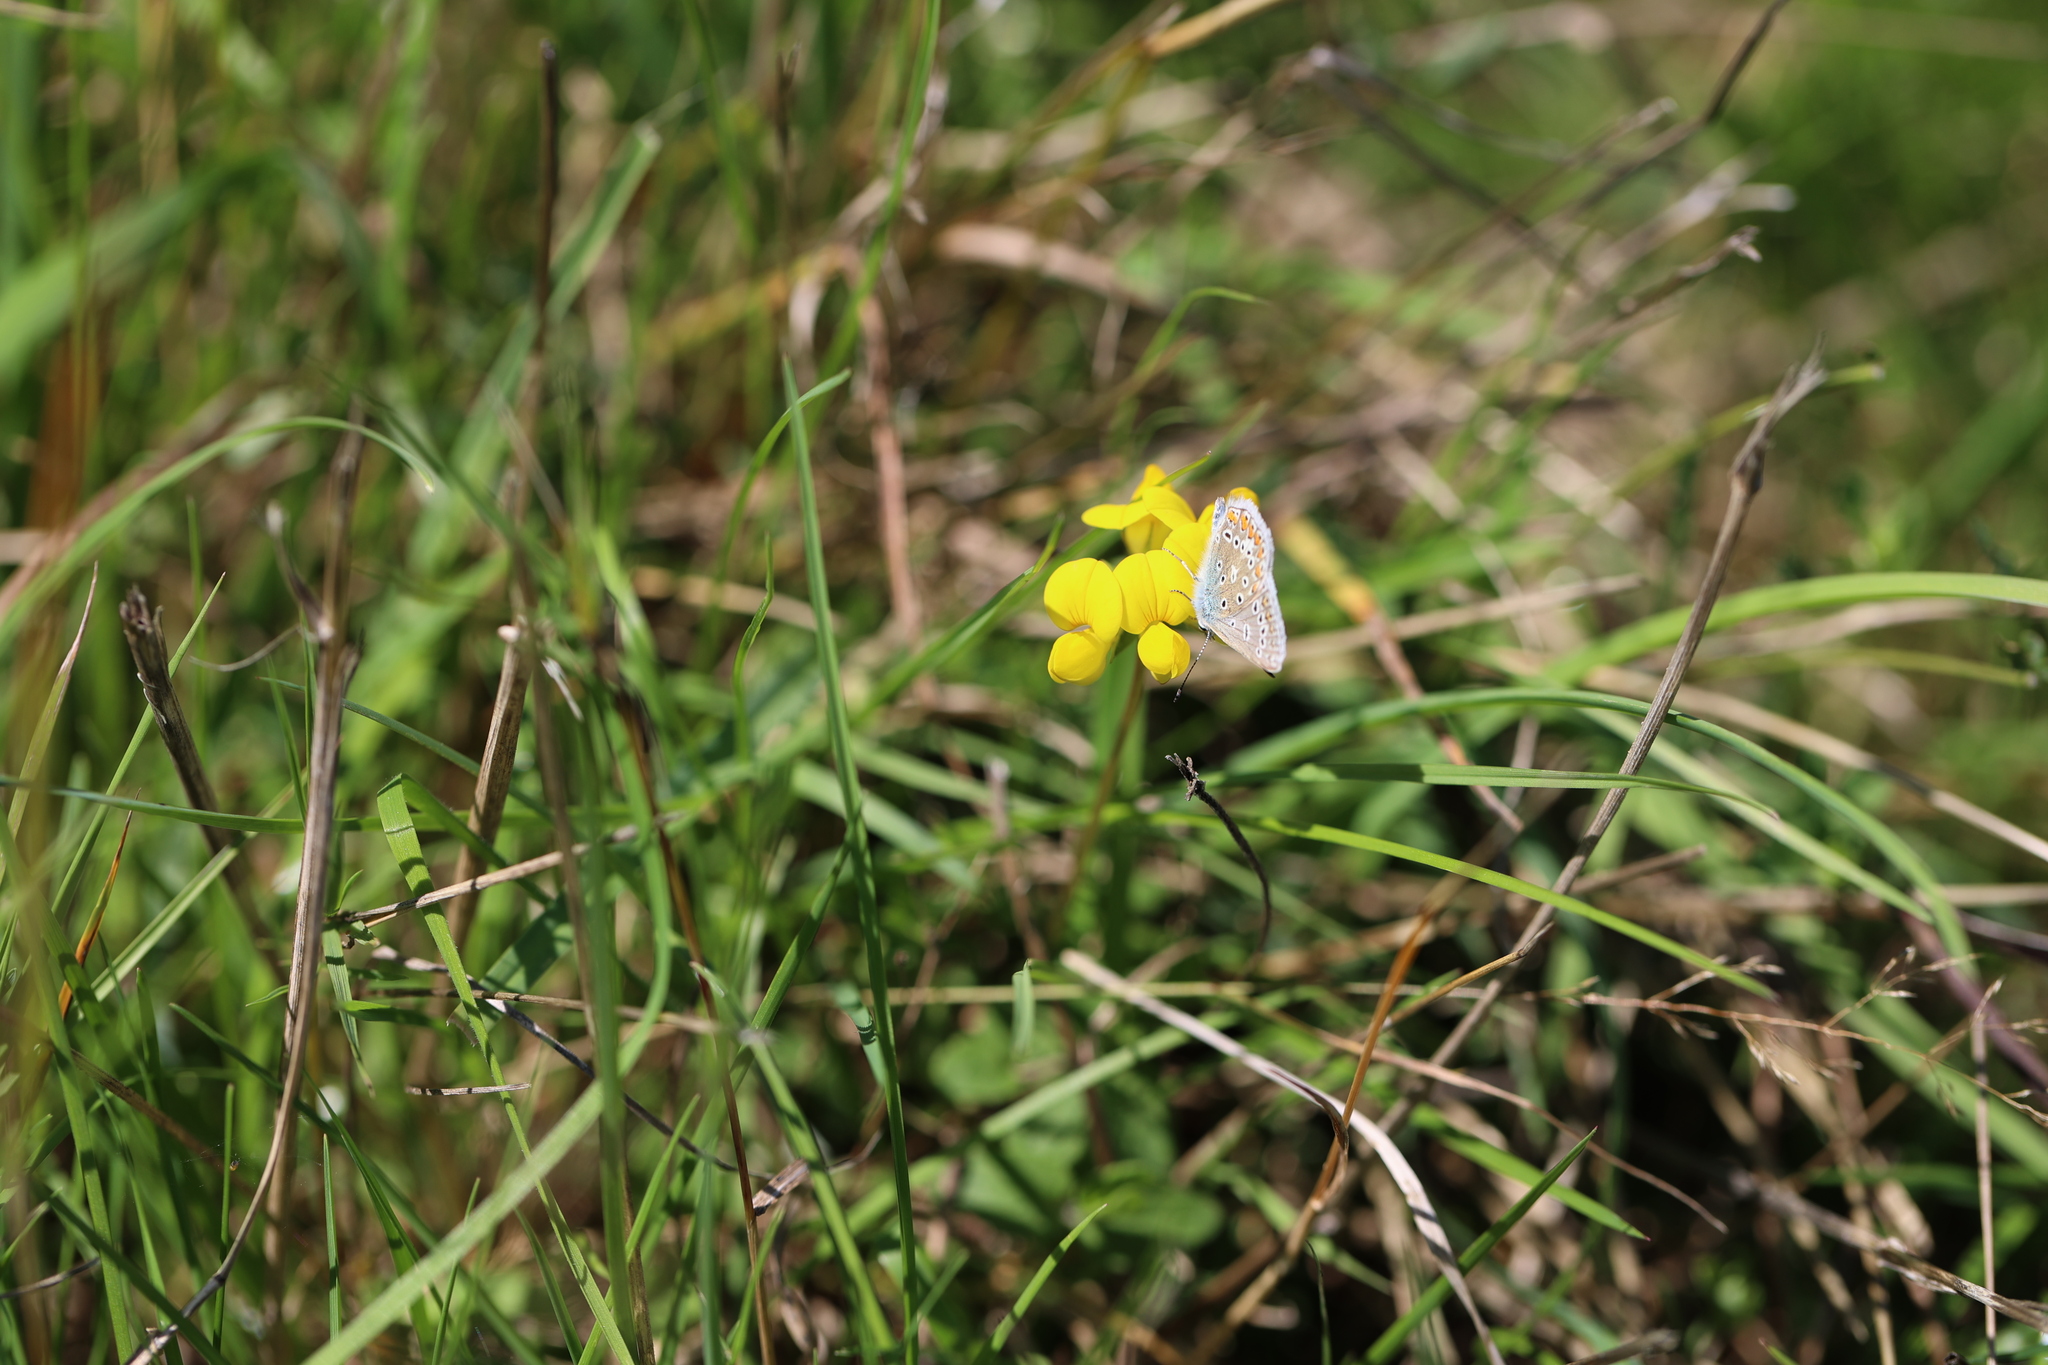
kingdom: Animalia
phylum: Arthropoda
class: Insecta
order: Lepidoptera
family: Lycaenidae
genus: Polyommatus
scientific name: Polyommatus icarus
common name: Common blue
